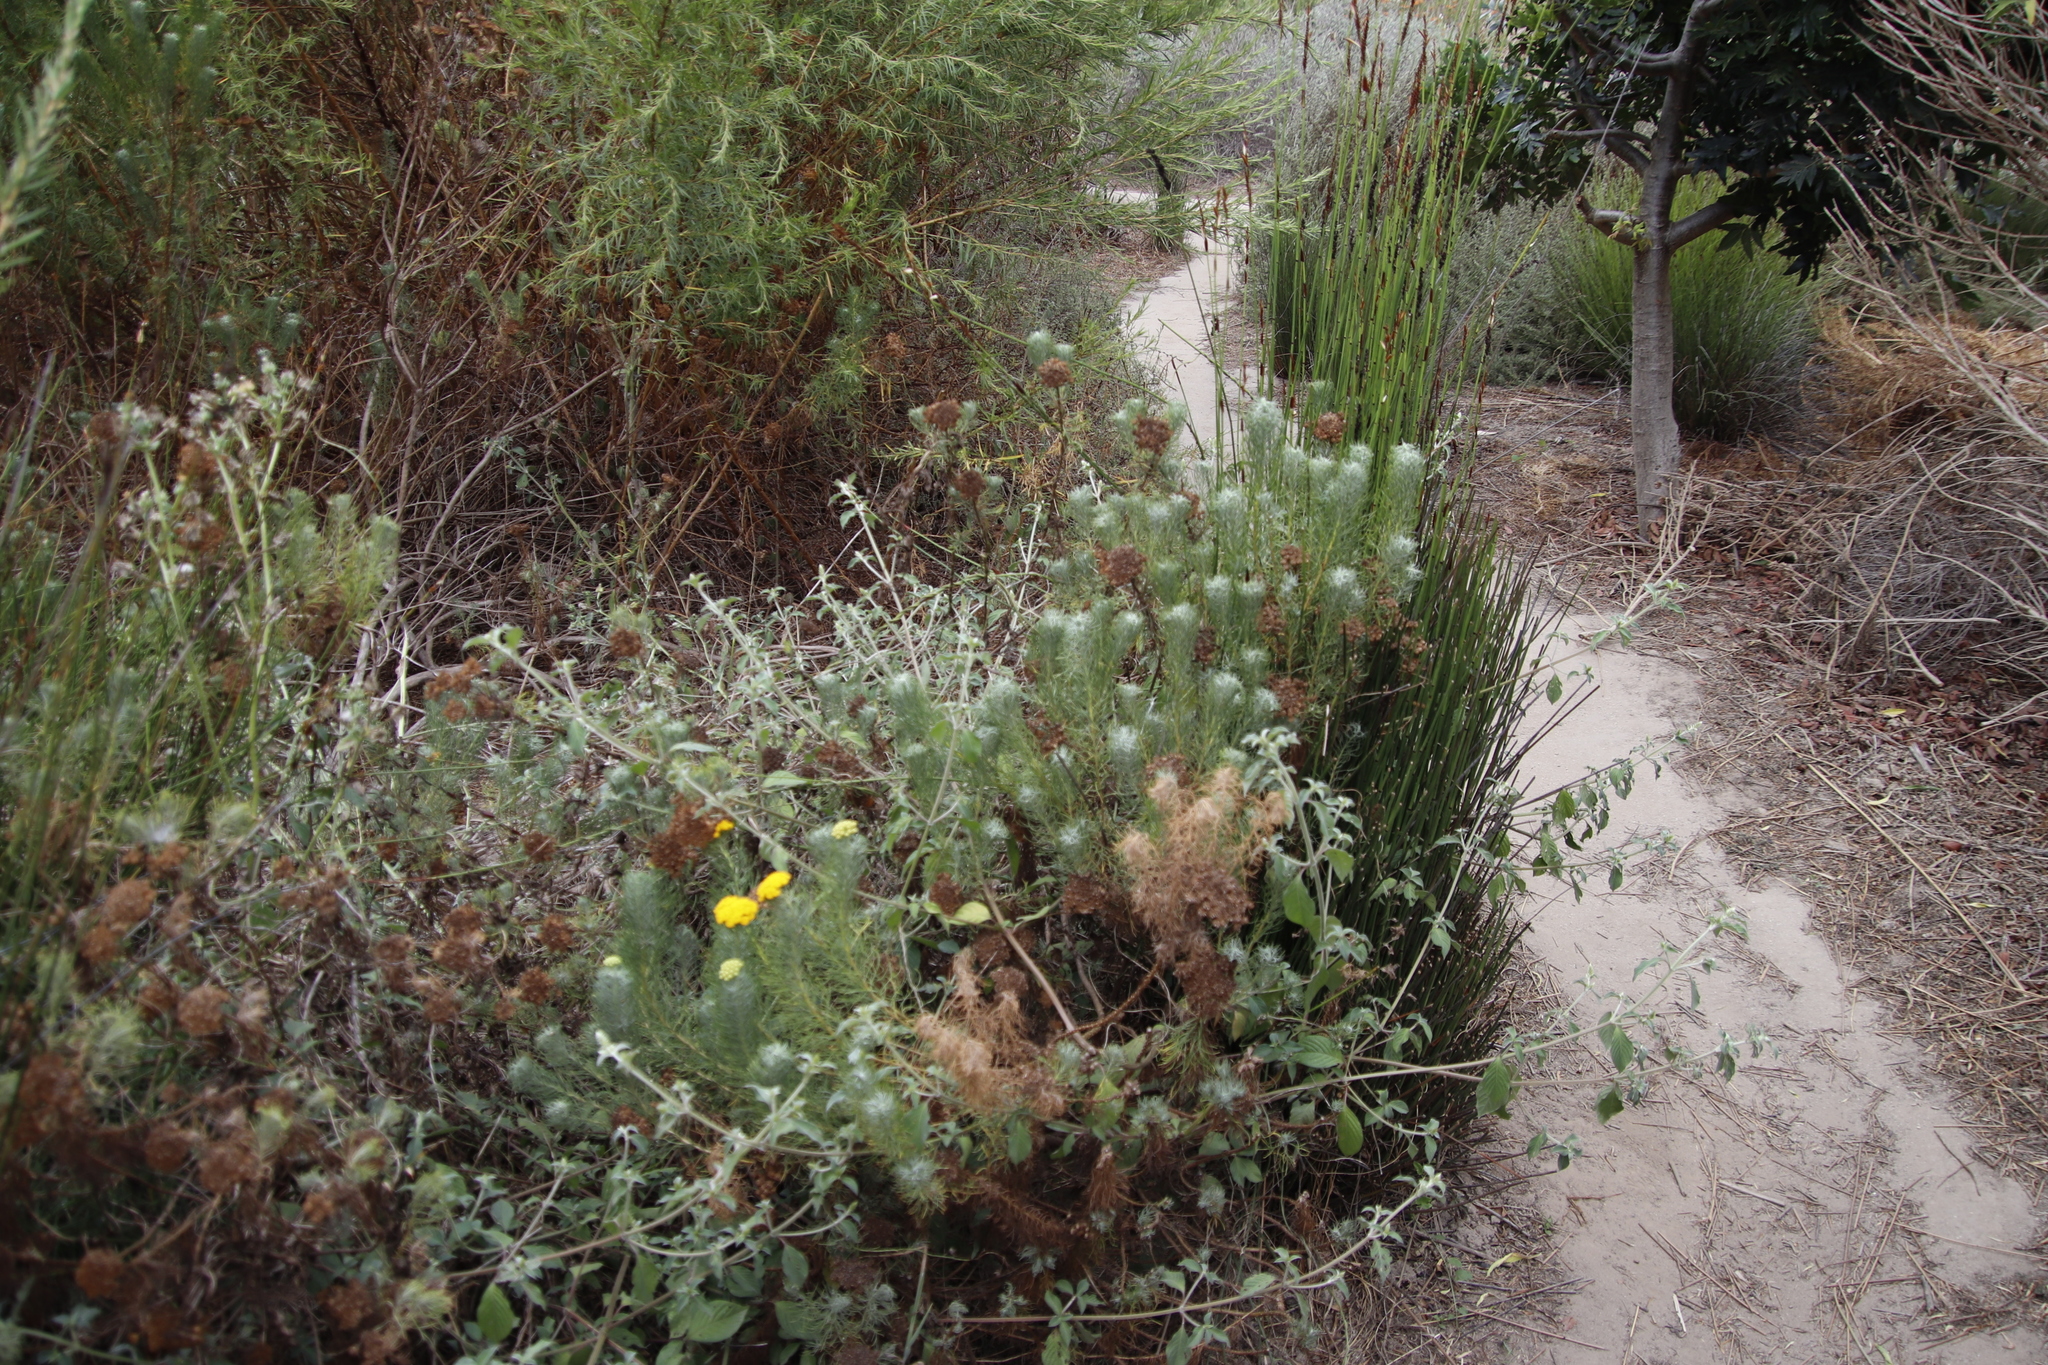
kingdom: Plantae
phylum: Tracheophyta
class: Magnoliopsida
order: Asterales
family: Asteraceae
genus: Athanasia
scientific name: Athanasia crithmifolia
